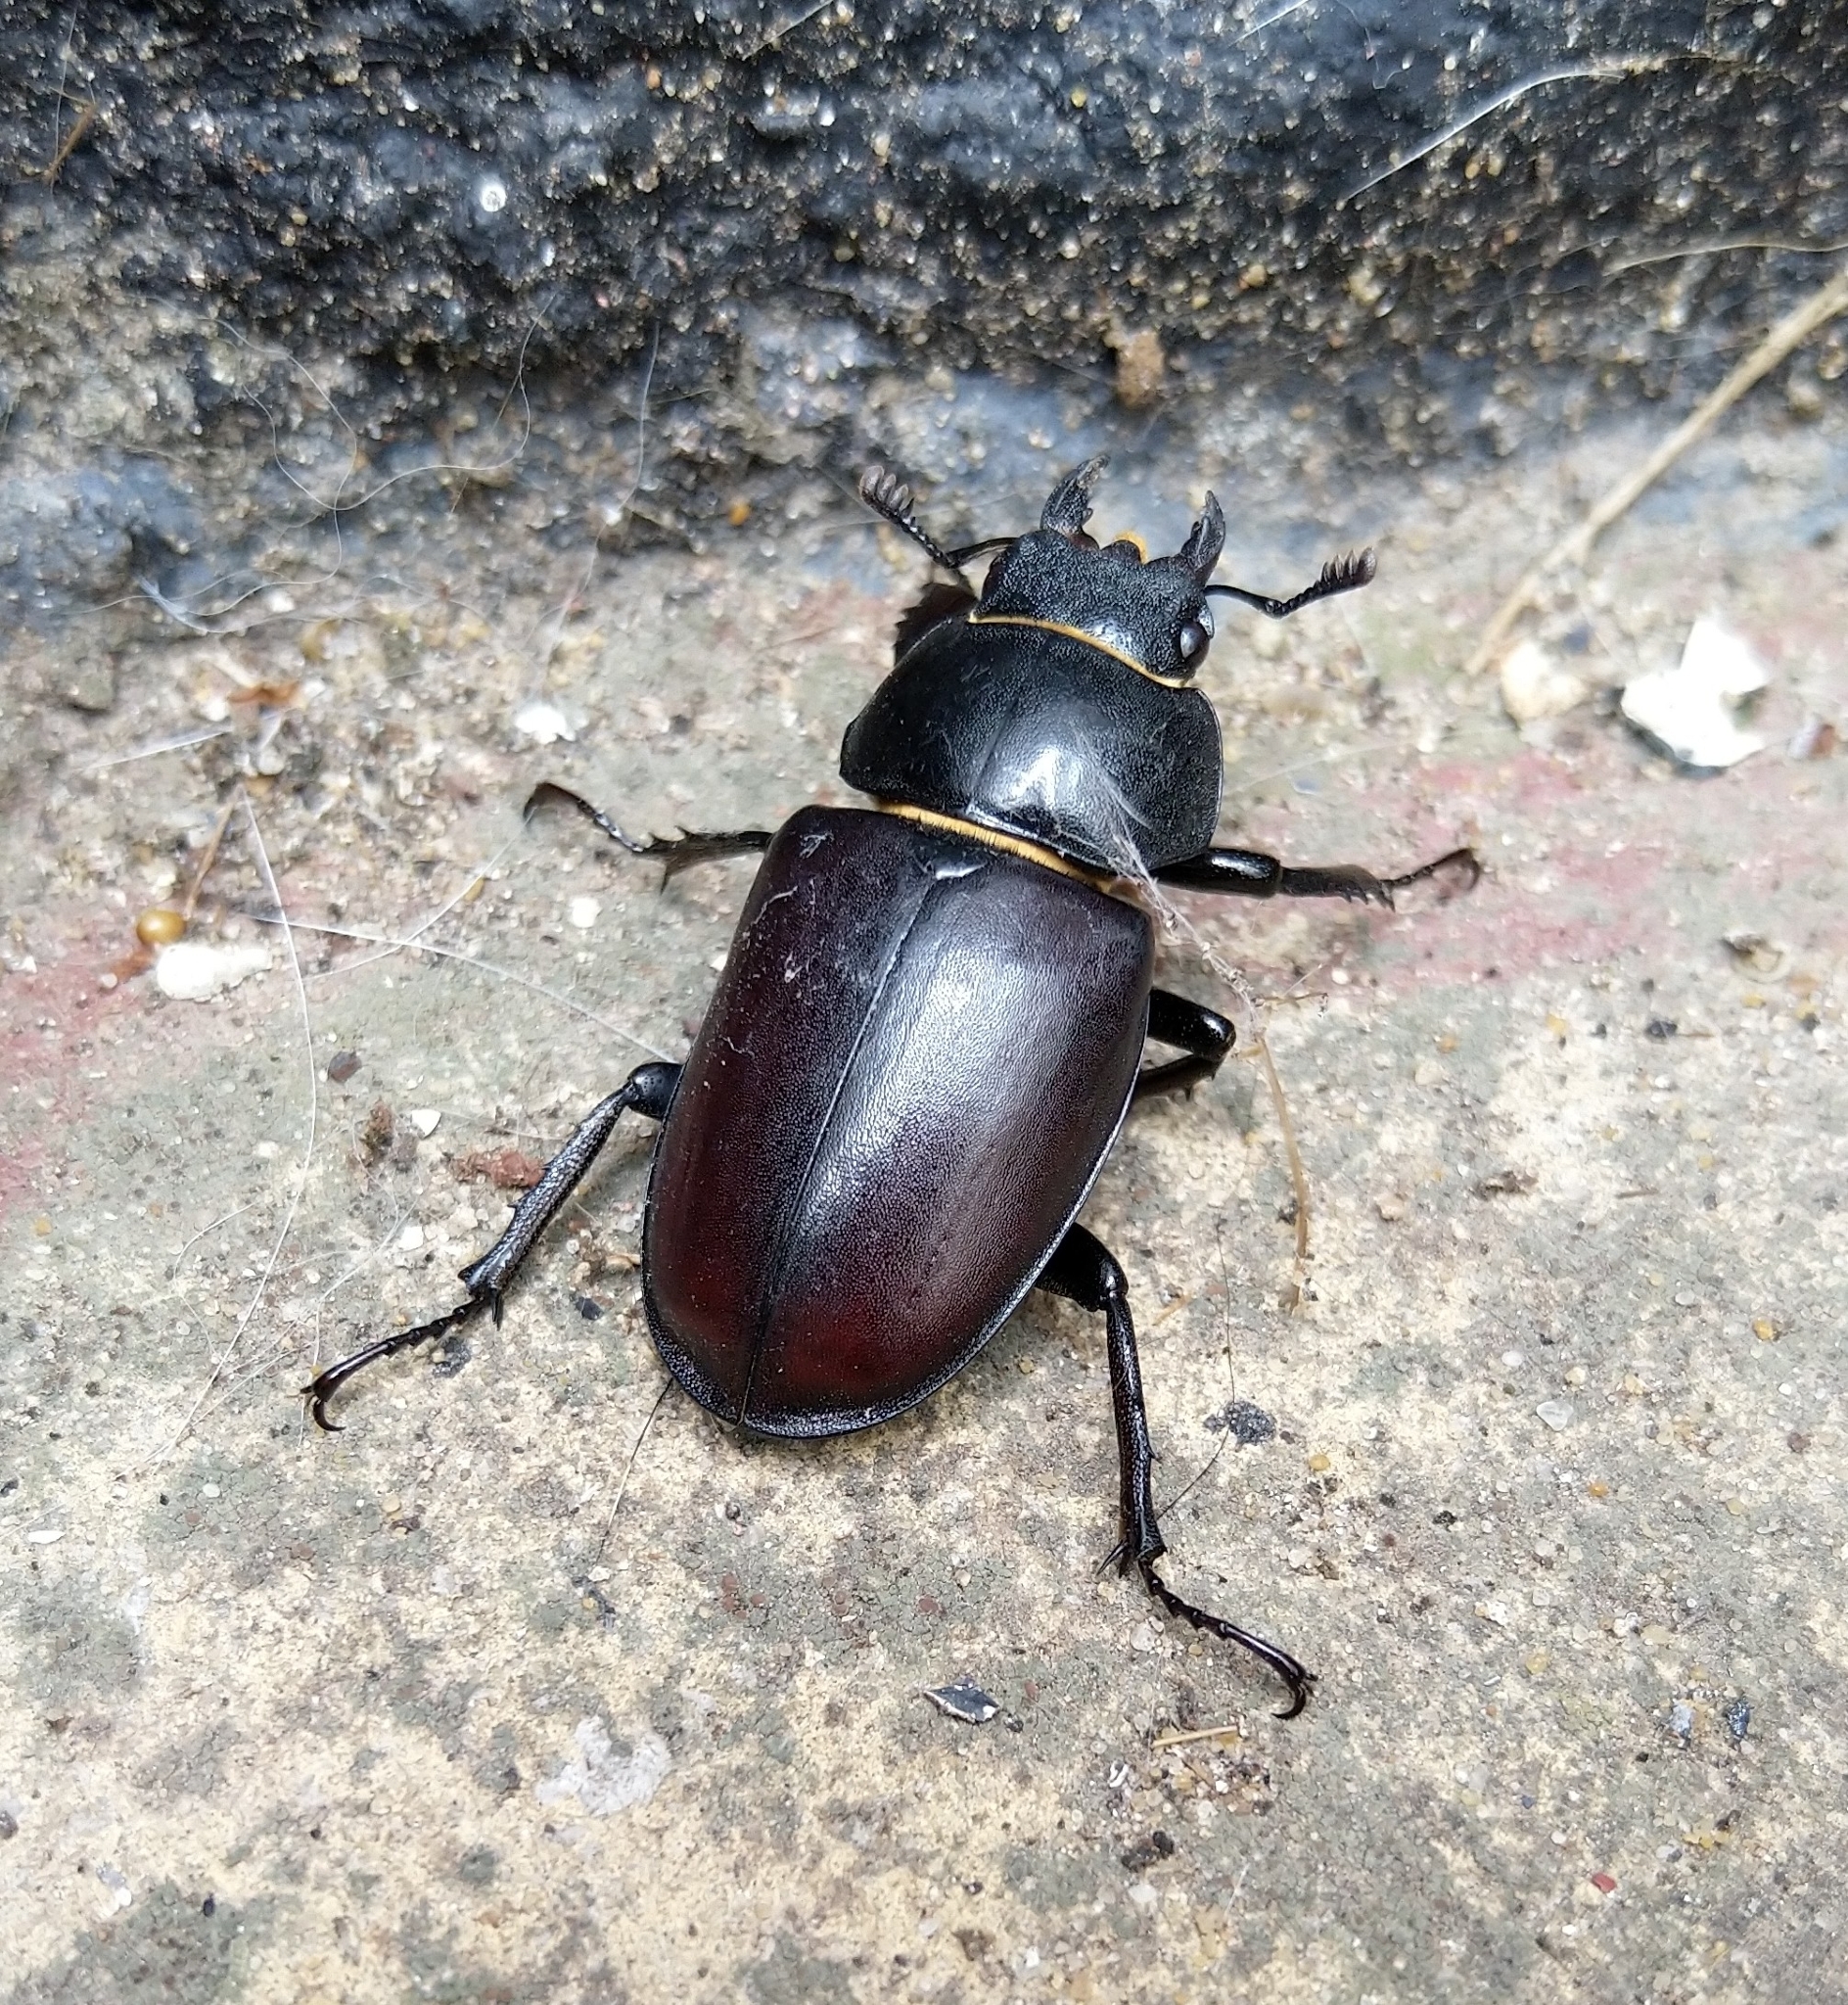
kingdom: Animalia
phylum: Arthropoda
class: Insecta
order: Coleoptera
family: Lucanidae
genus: Lucanus
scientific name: Lucanus cervus
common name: Stag beetle
